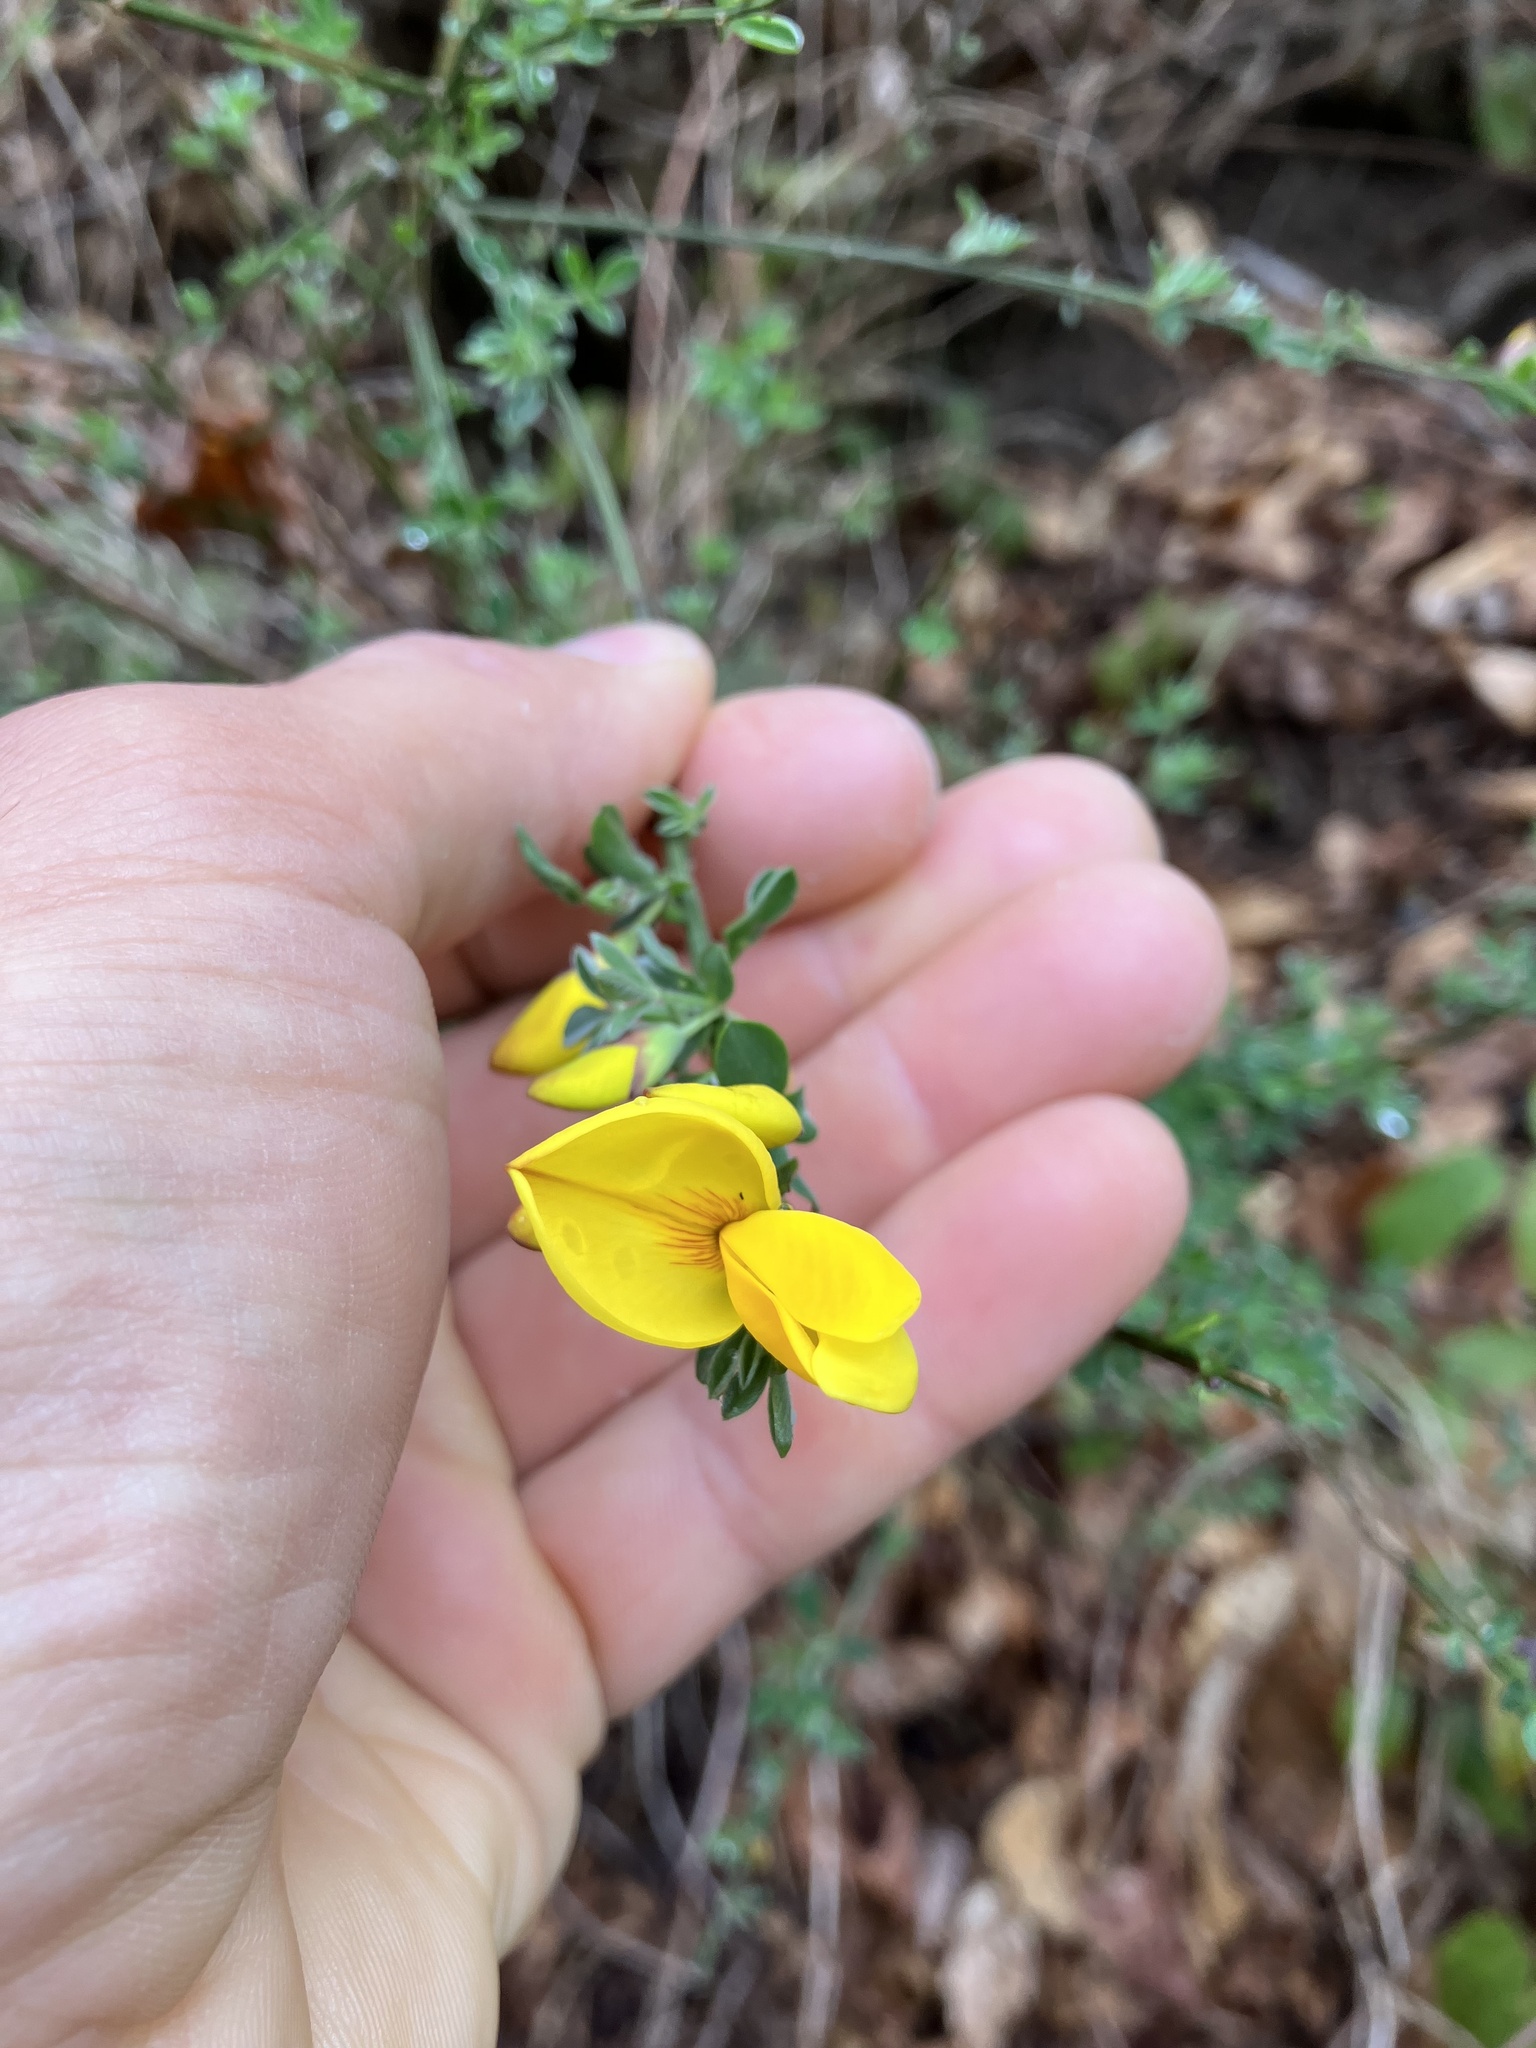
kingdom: Plantae
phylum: Tracheophyta
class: Magnoliopsida
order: Fabales
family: Fabaceae
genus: Cytisus
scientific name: Cytisus scoparius
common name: Scotch broom
